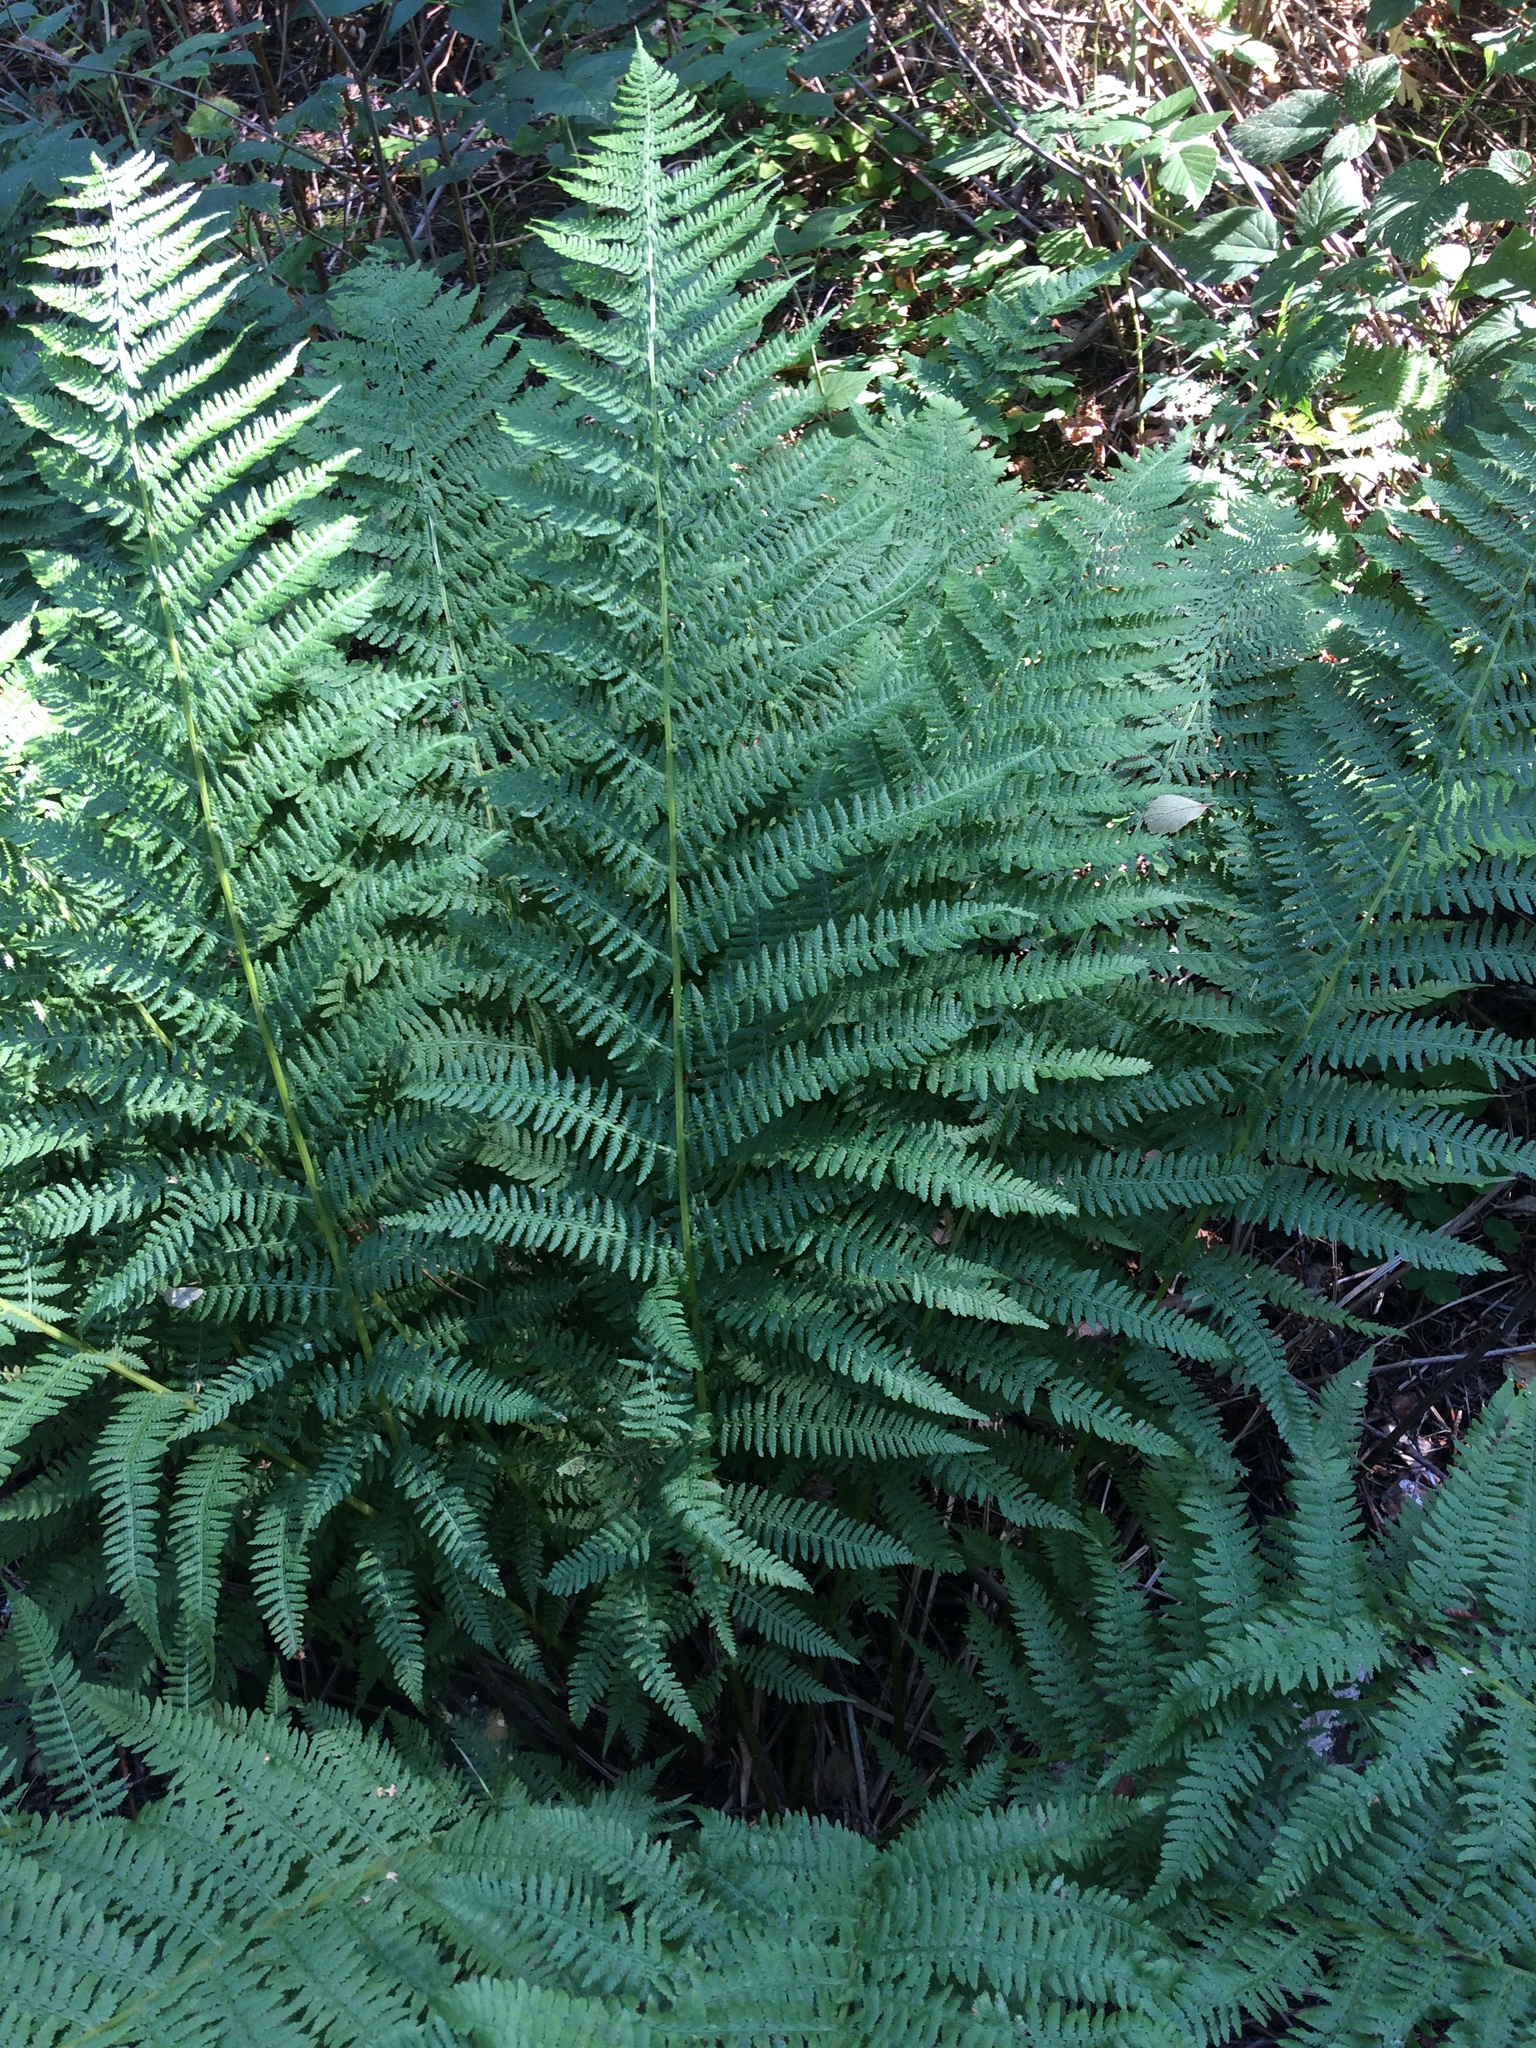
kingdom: Plantae
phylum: Tracheophyta
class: Polypodiopsida
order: Polypodiales
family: Athyriaceae
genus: Athyrium
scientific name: Athyrium filix-femina
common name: Lady fern
